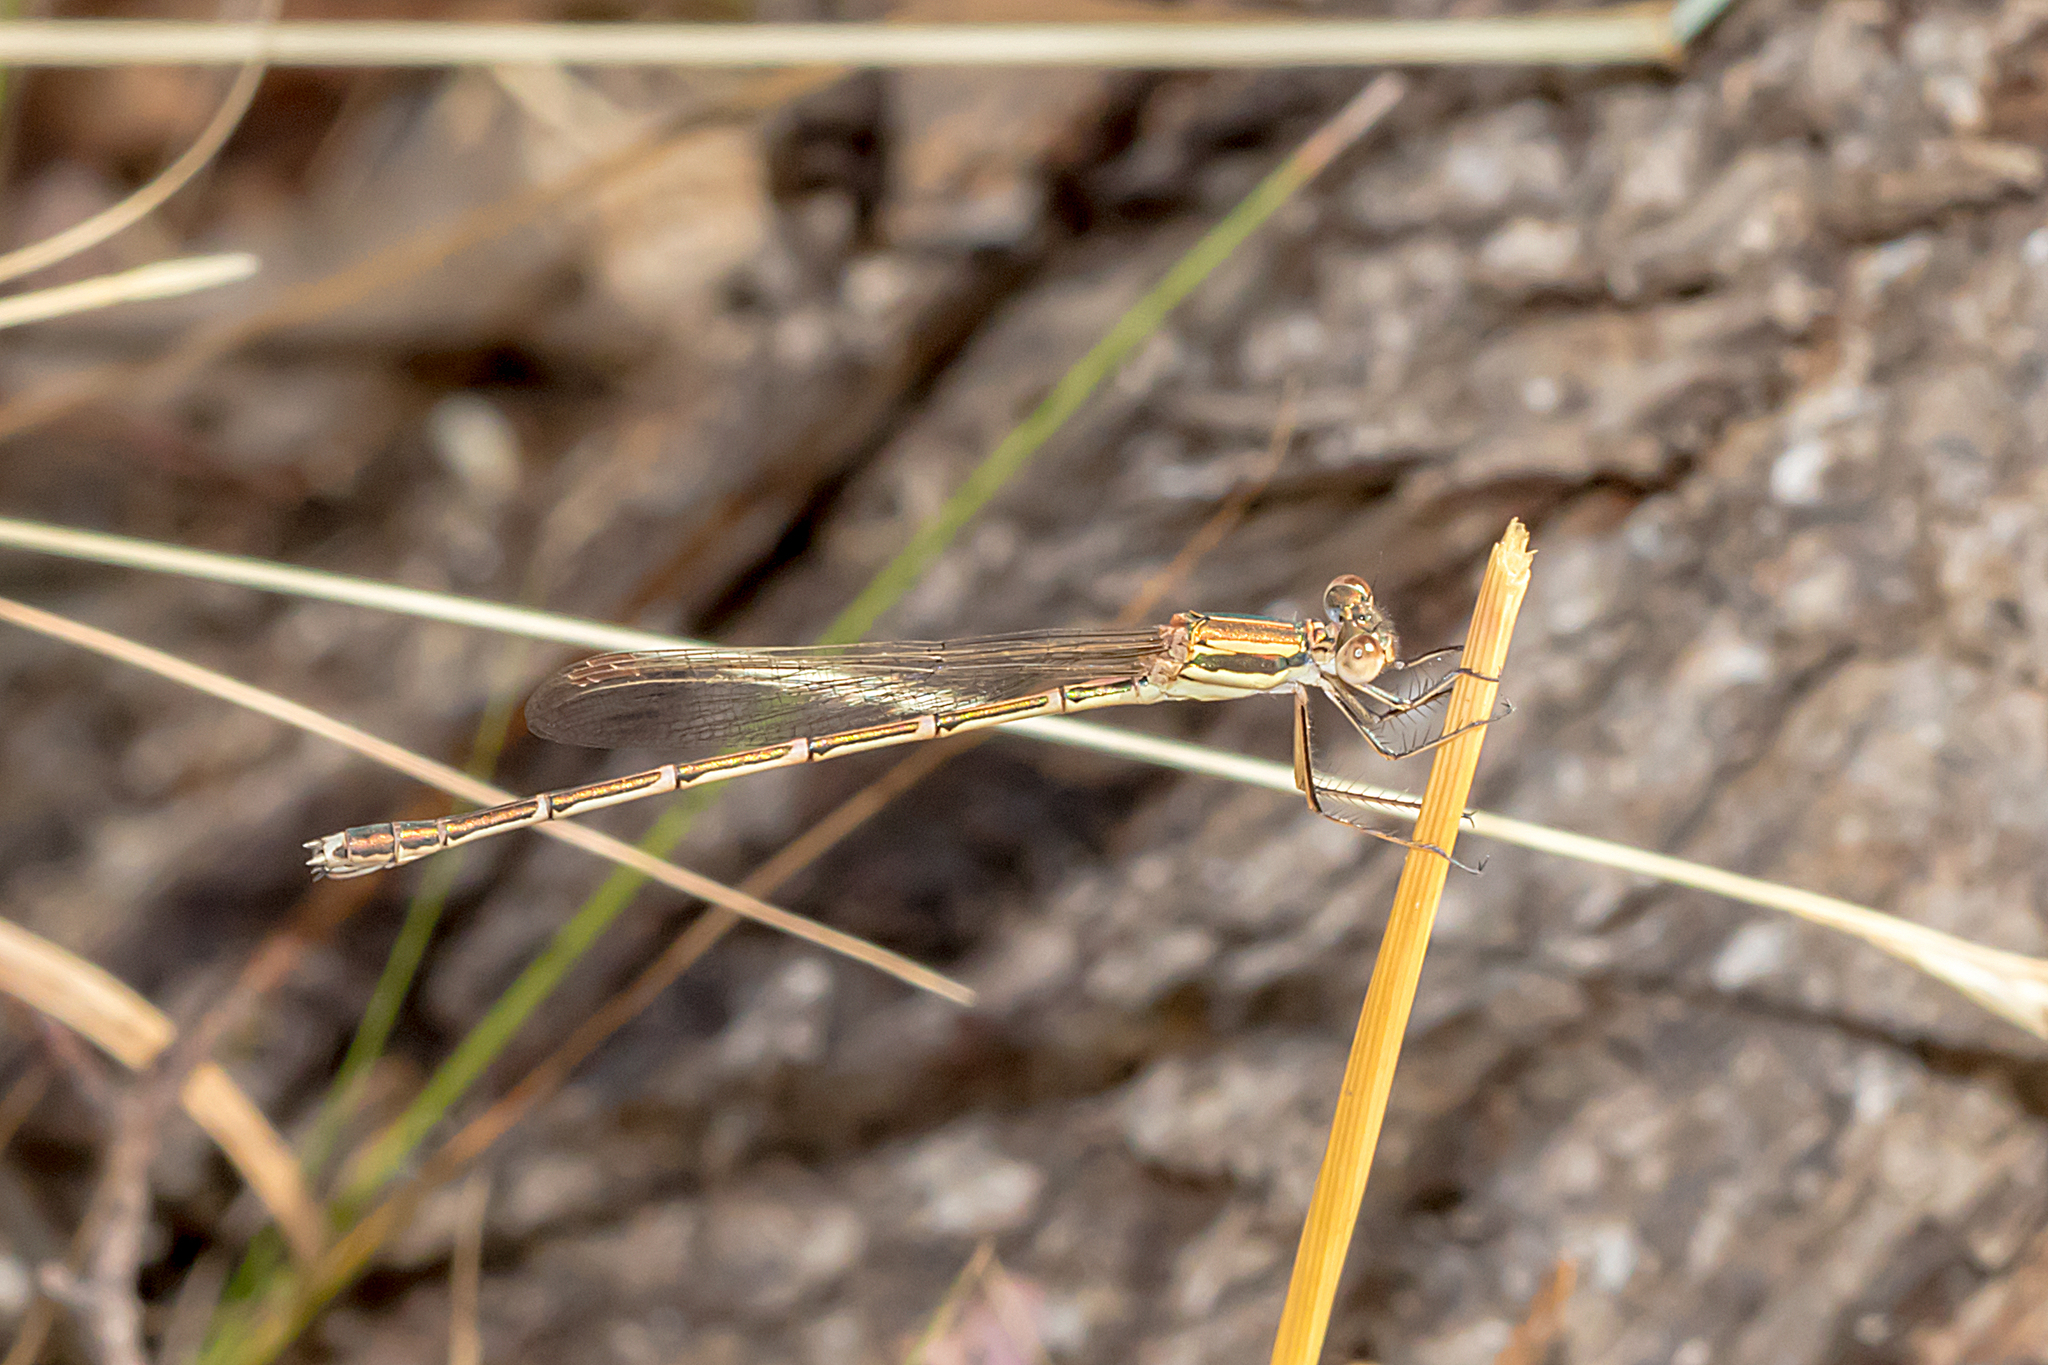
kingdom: Animalia
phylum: Arthropoda
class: Insecta
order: Odonata
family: Lestidae
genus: Austrolestes
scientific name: Austrolestes analis
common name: Slender ringtail
